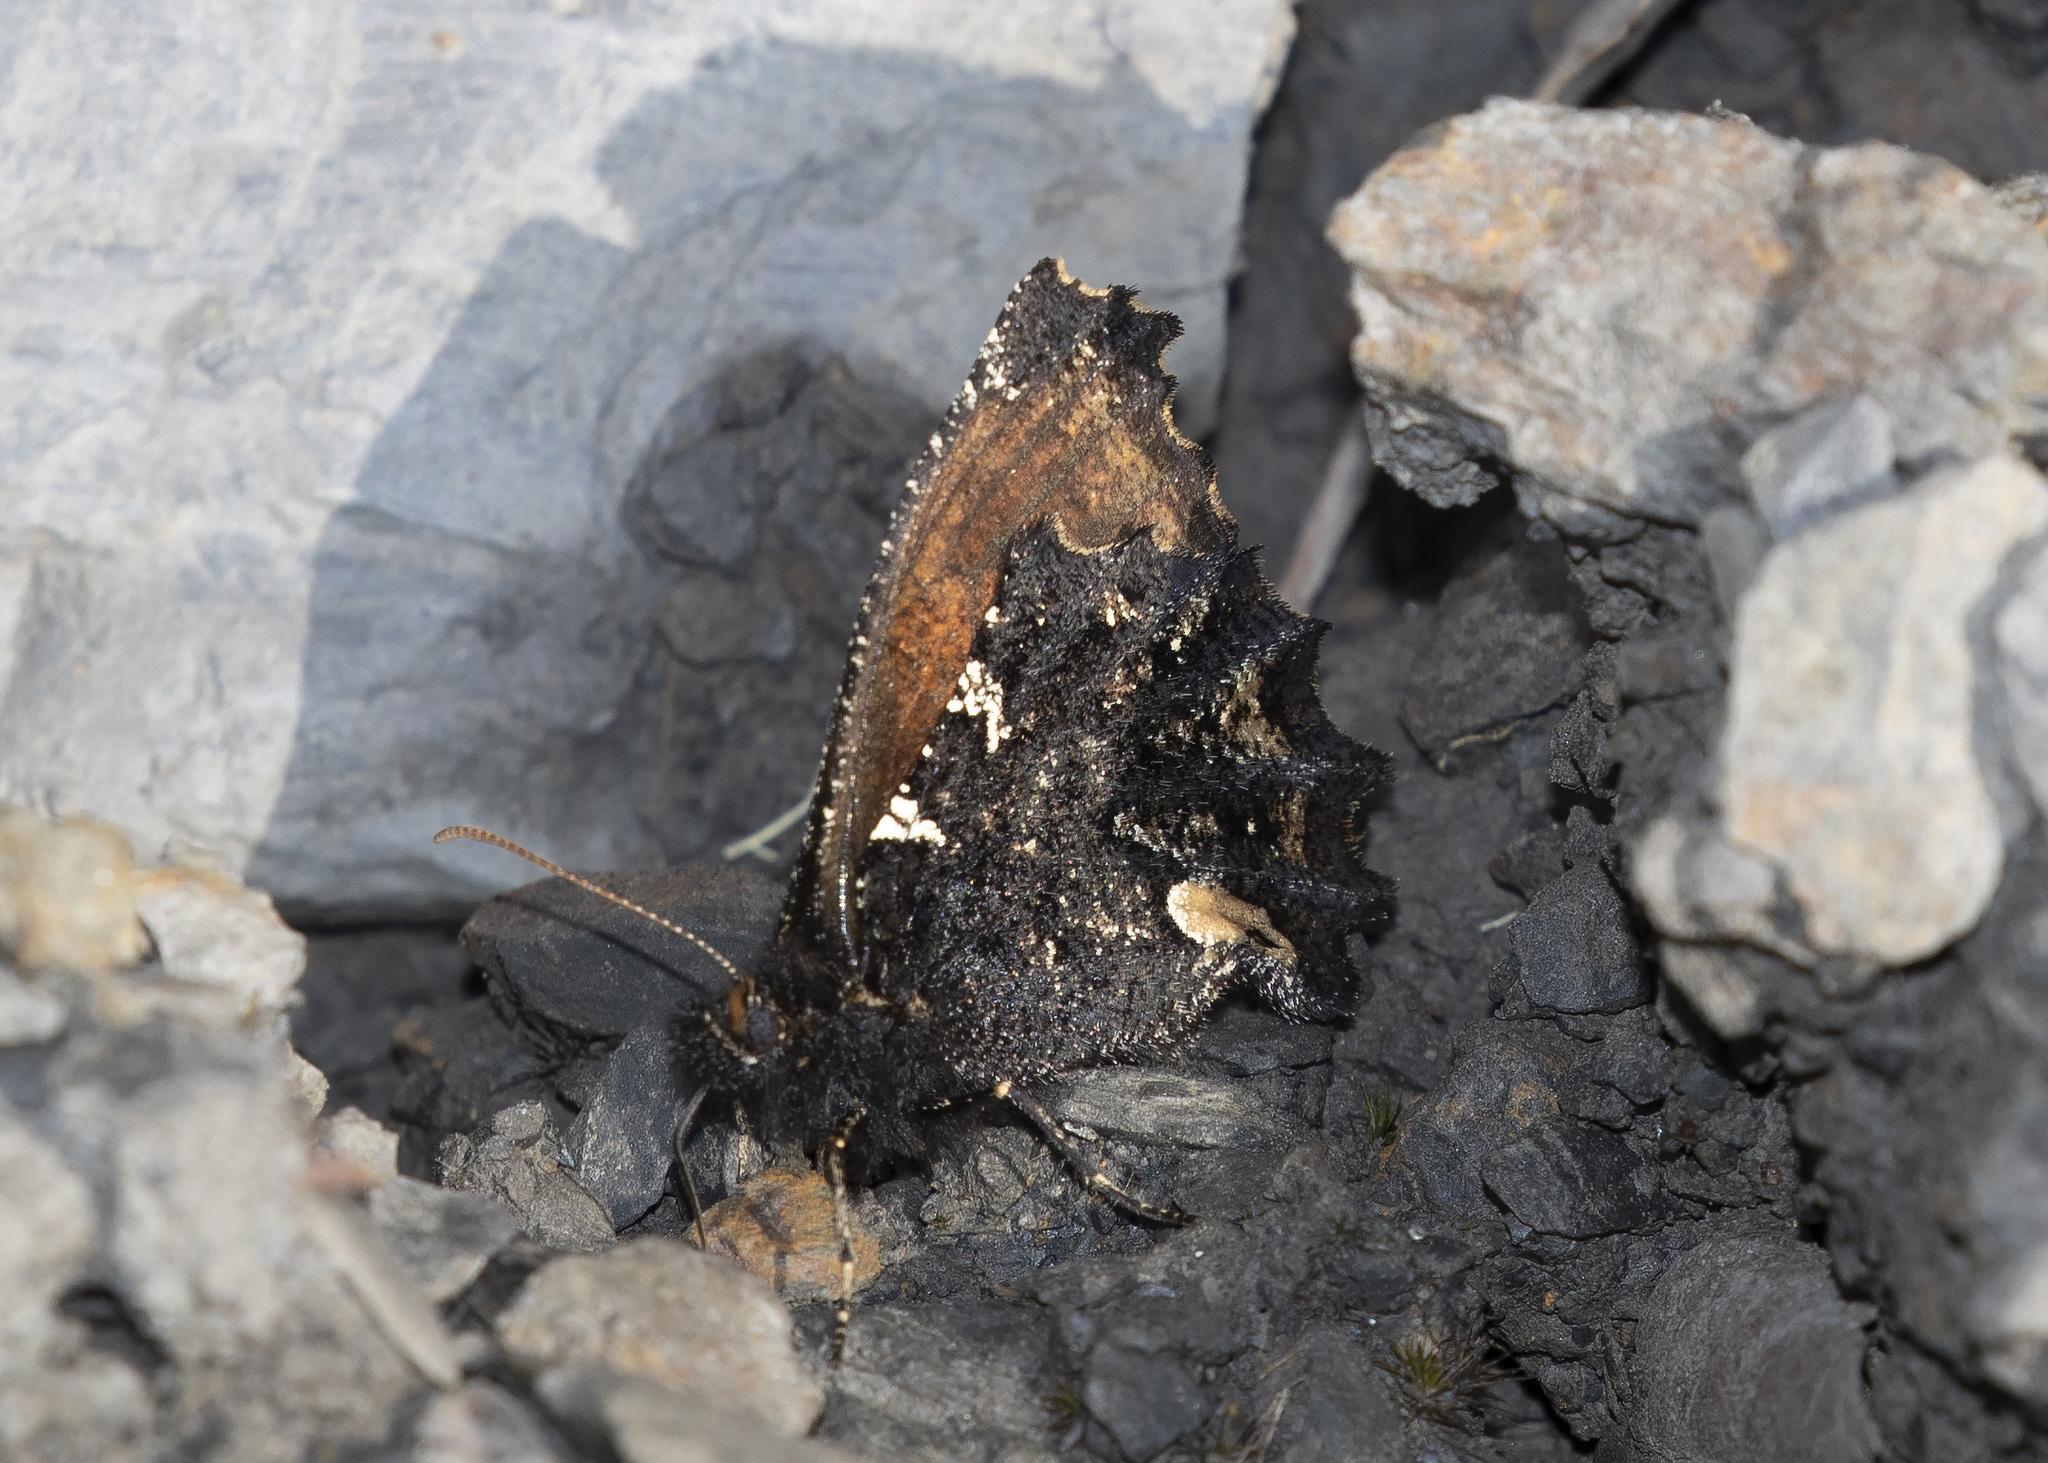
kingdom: Animalia
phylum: Arthropoda
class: Insecta
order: Lepidoptera
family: Nymphalidae
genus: Steremnia
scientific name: Steremnia monachella
